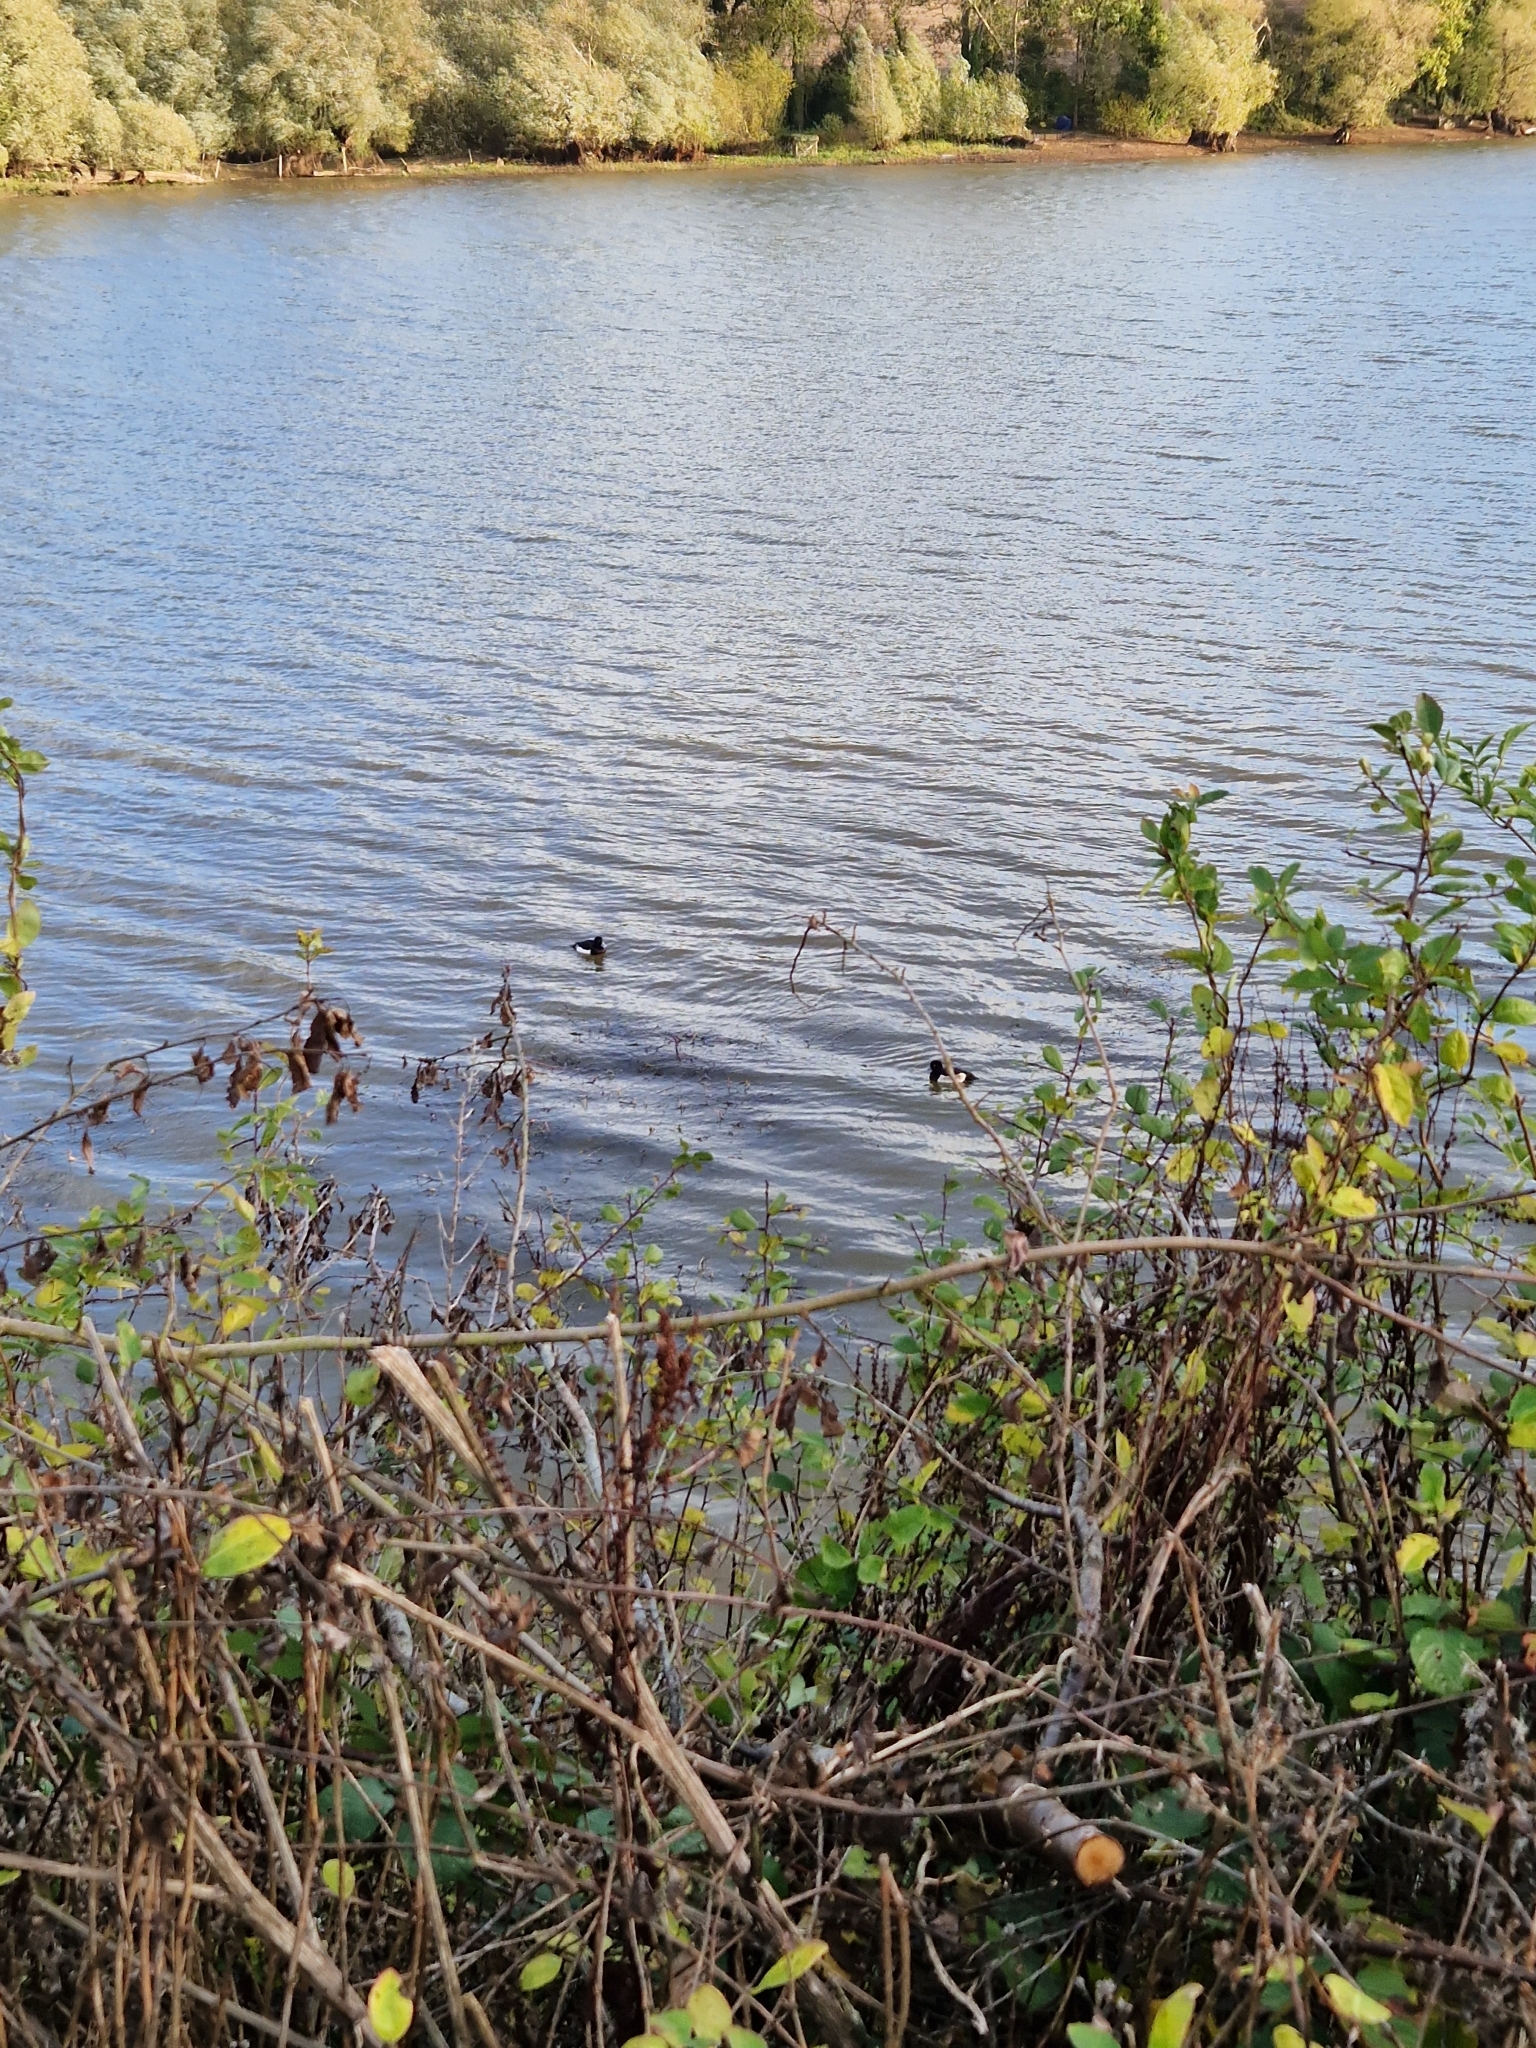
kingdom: Animalia
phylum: Chordata
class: Aves
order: Anseriformes
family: Anatidae
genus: Aythya
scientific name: Aythya fuligula
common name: Tufted duck
